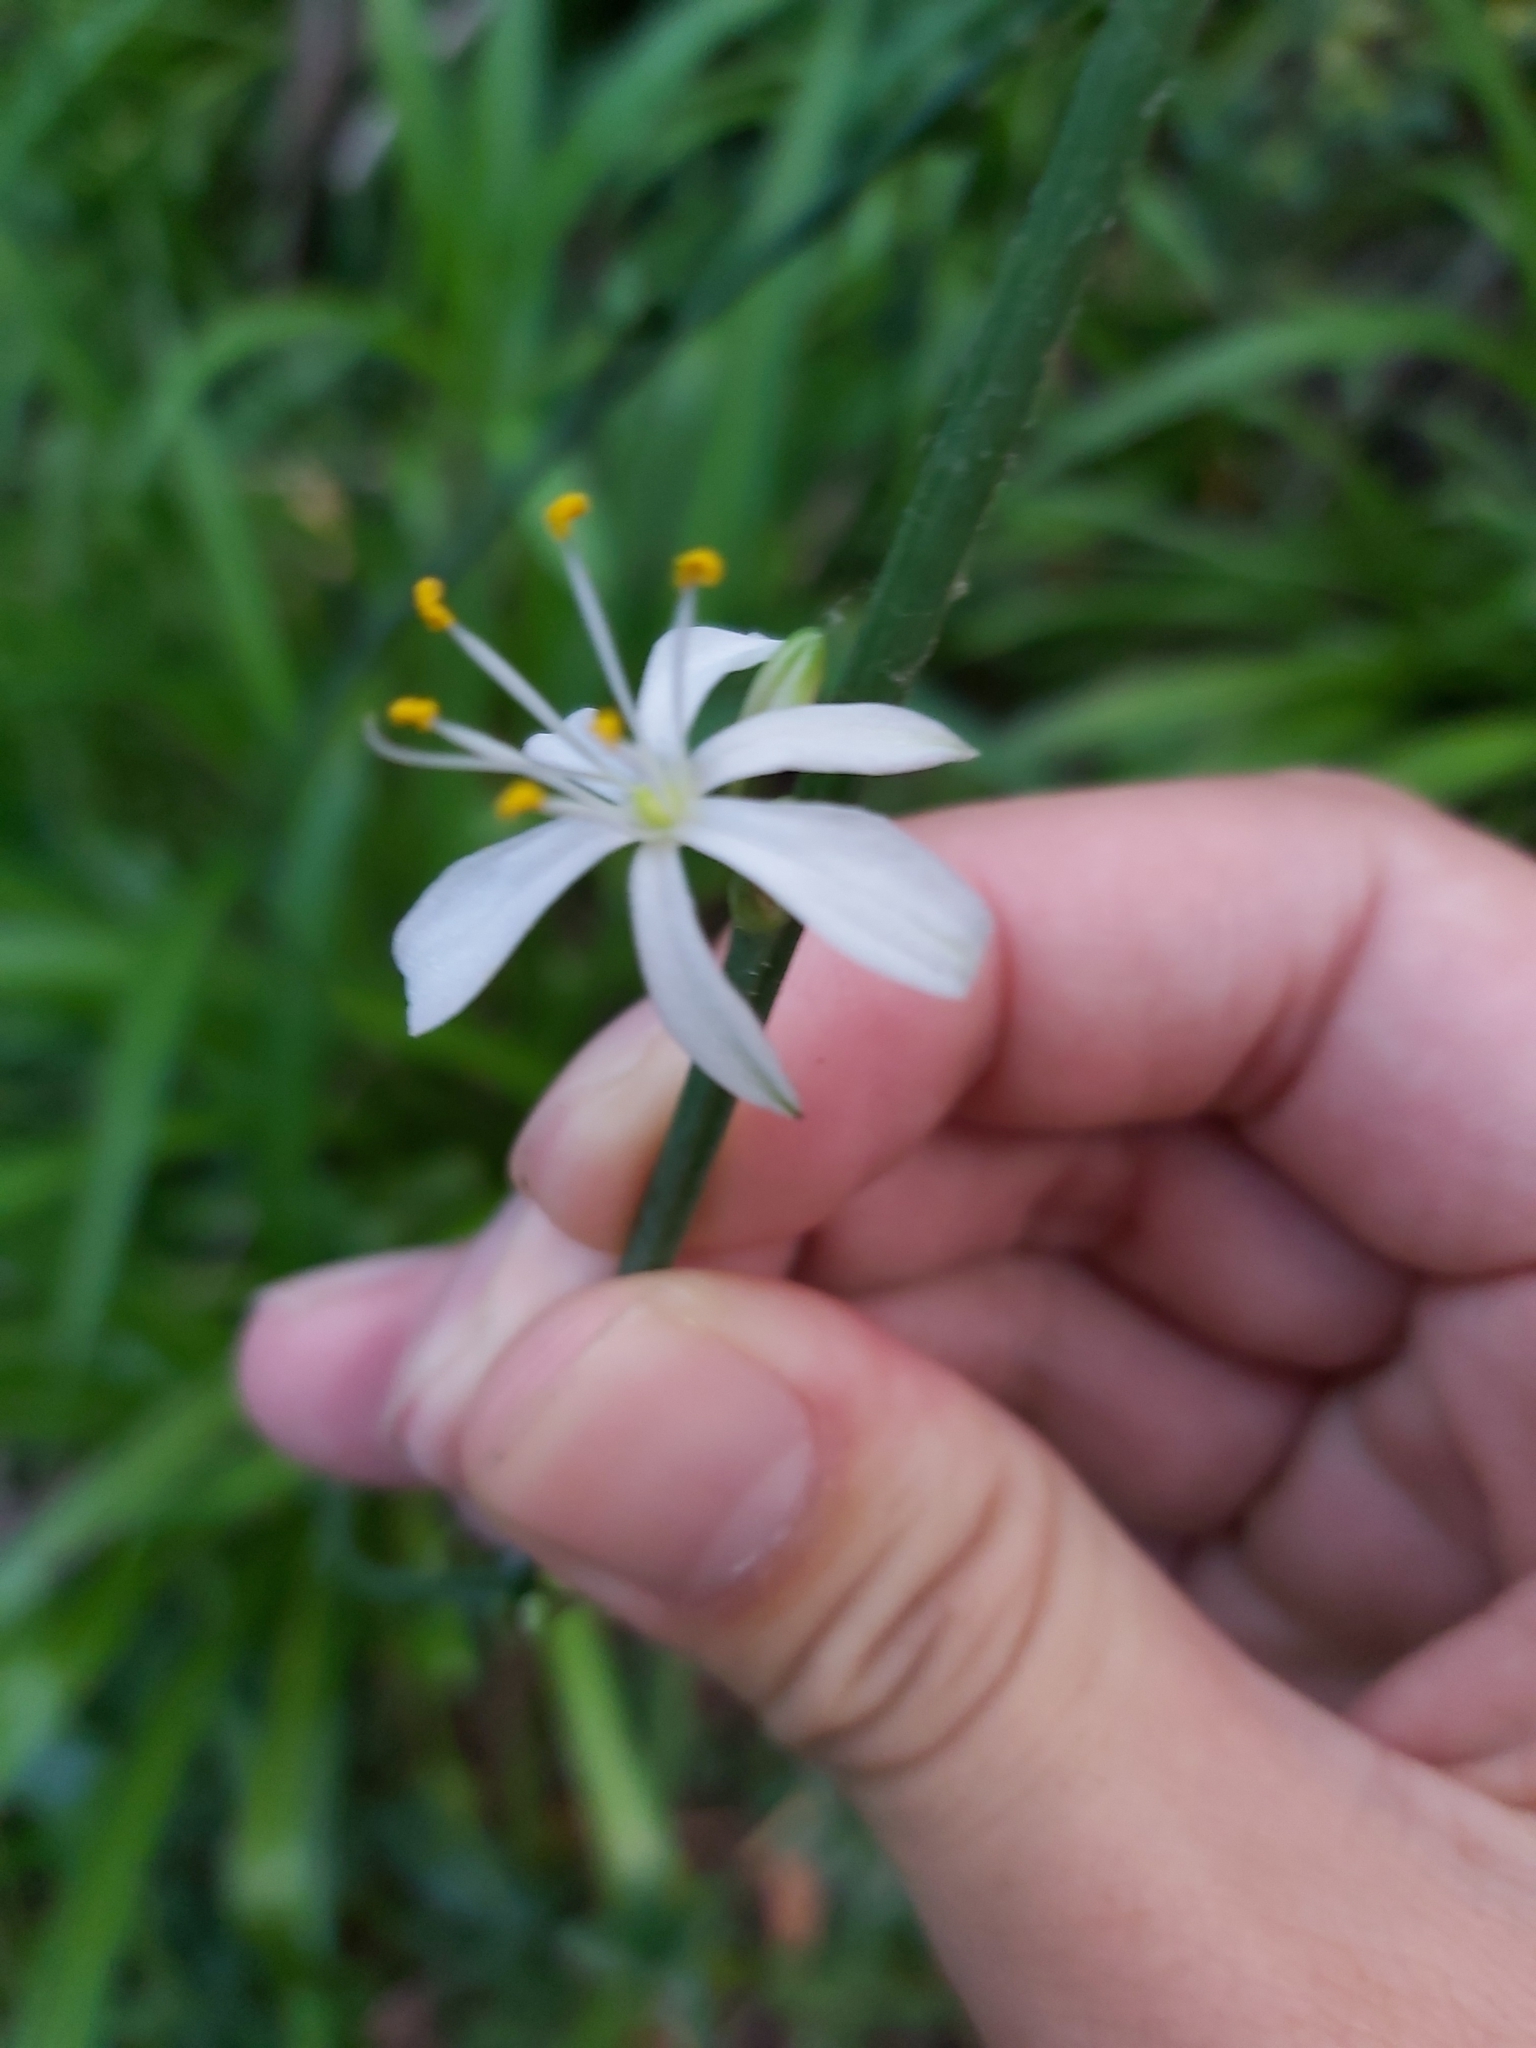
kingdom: Plantae
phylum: Tracheophyta
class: Liliopsida
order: Asparagales
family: Asparagaceae
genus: Chlorophytum
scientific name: Chlorophytum comosum
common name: Spider plant
